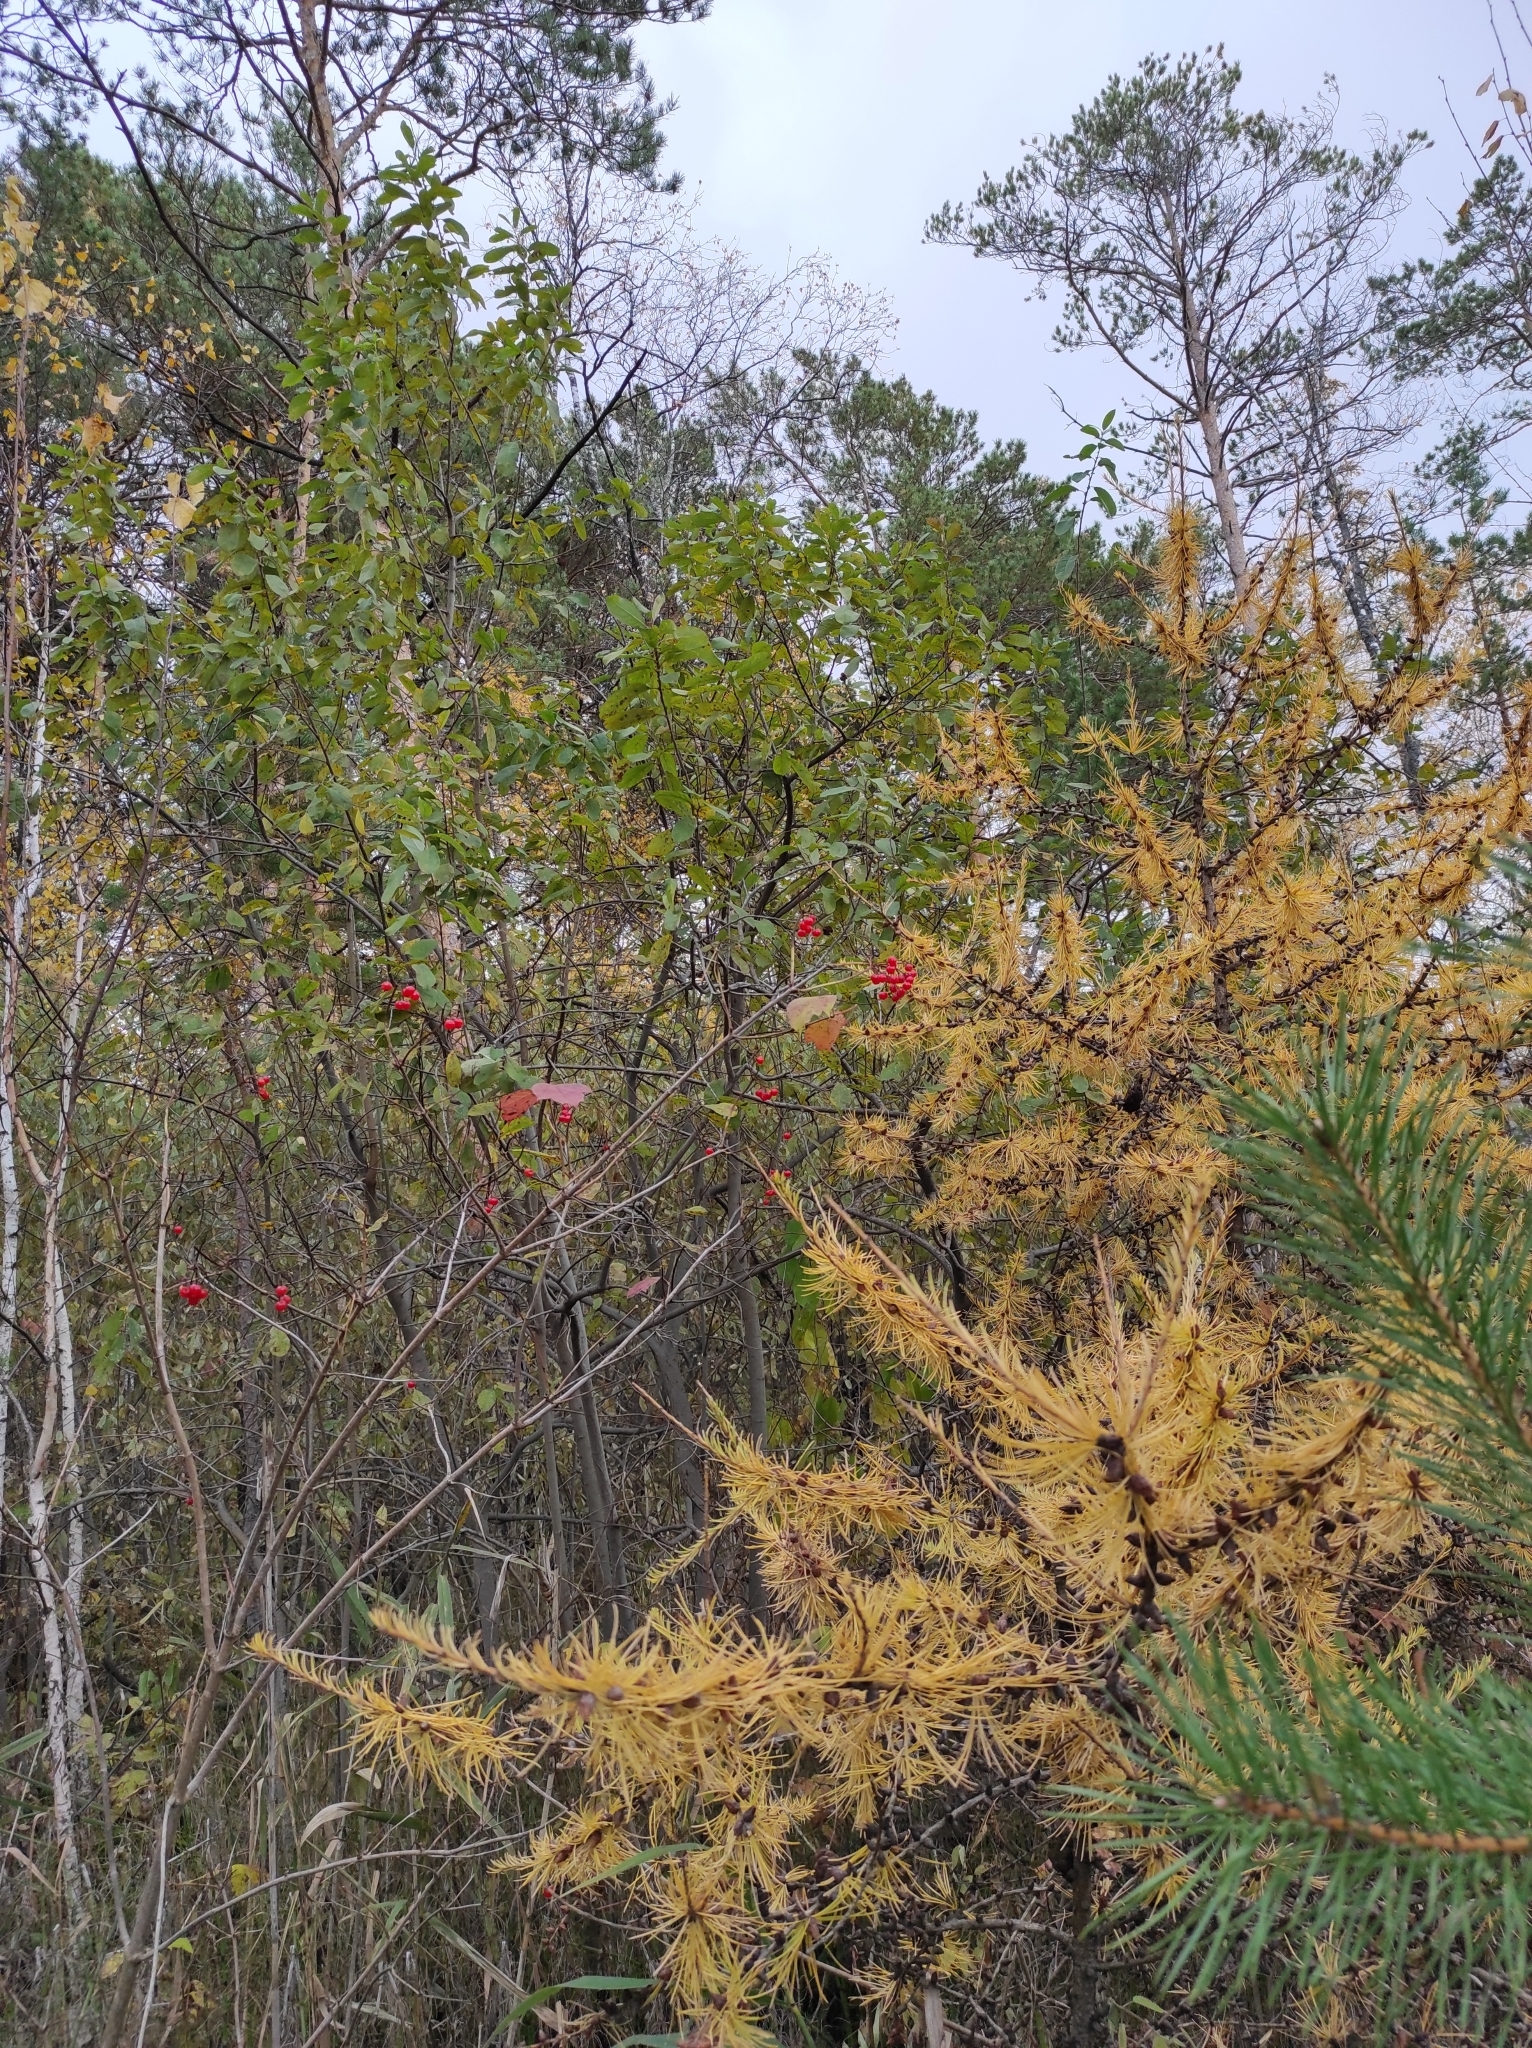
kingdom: Plantae
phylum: Tracheophyta
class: Pinopsida
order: Pinales
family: Pinaceae
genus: Larix
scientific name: Larix sibirica
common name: Siberian larch
